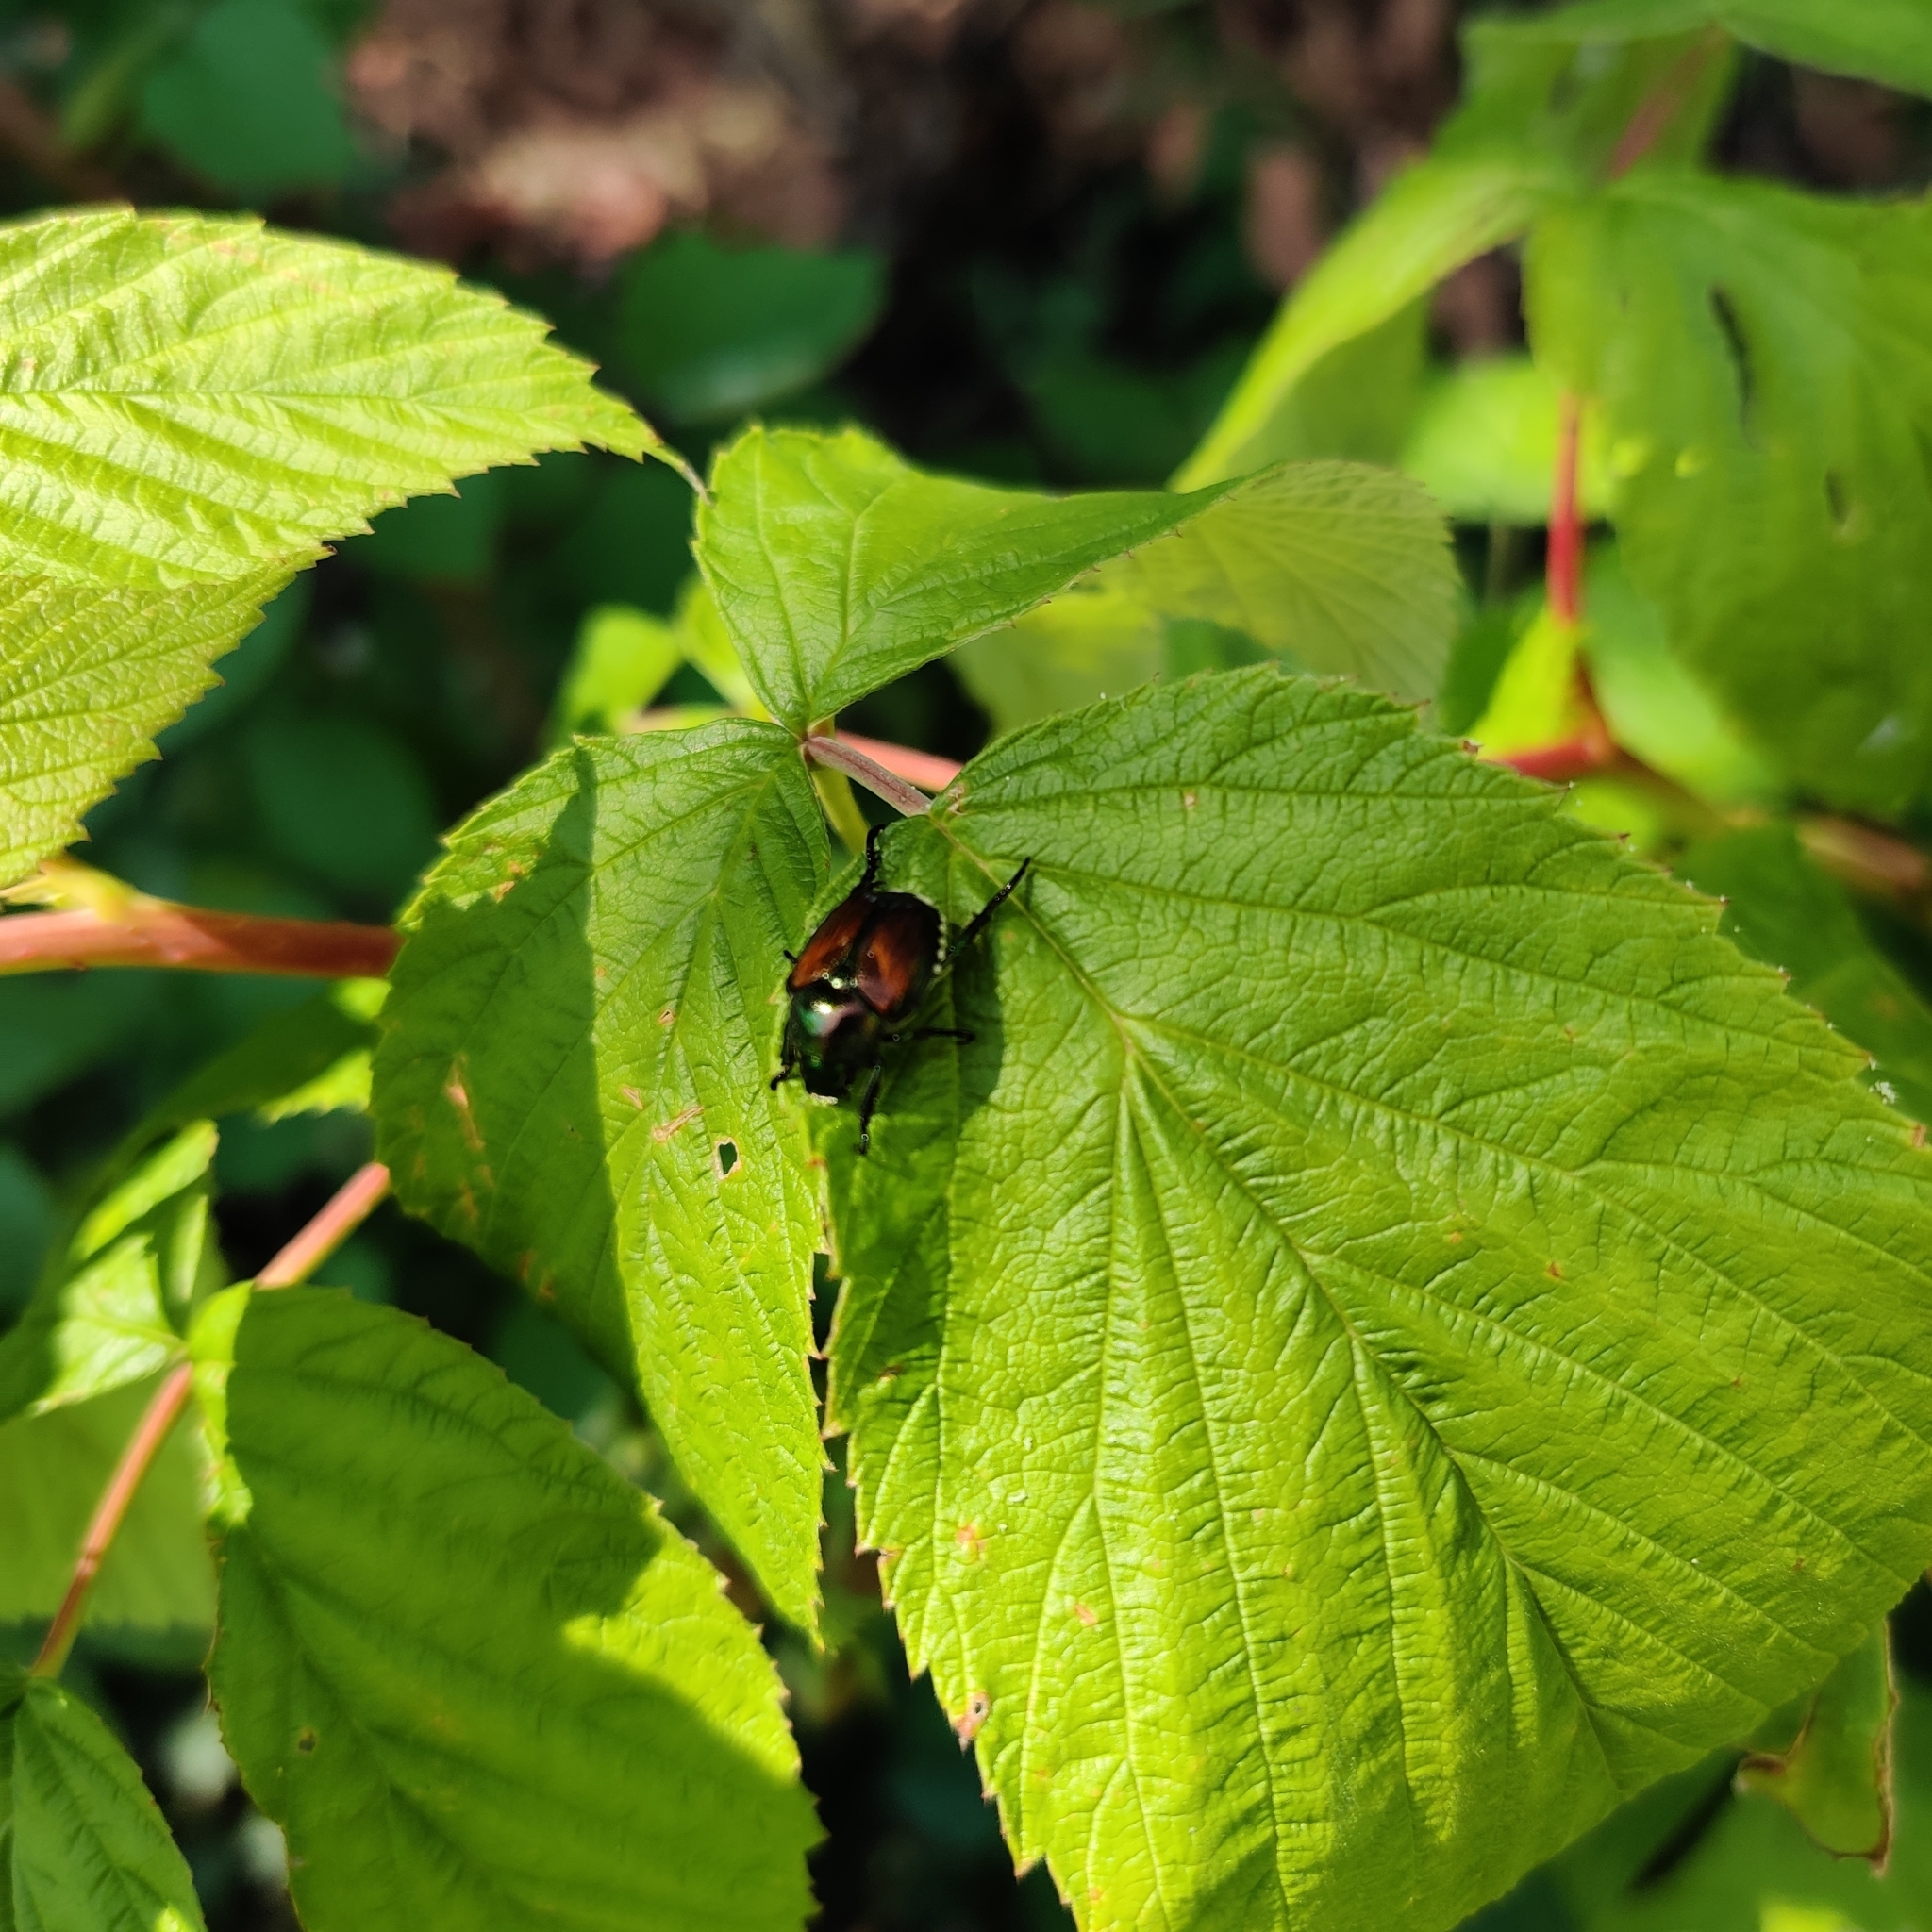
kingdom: Animalia
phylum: Arthropoda
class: Insecta
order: Coleoptera
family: Scarabaeidae
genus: Popillia
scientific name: Popillia japonica
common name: Japanese beetle
